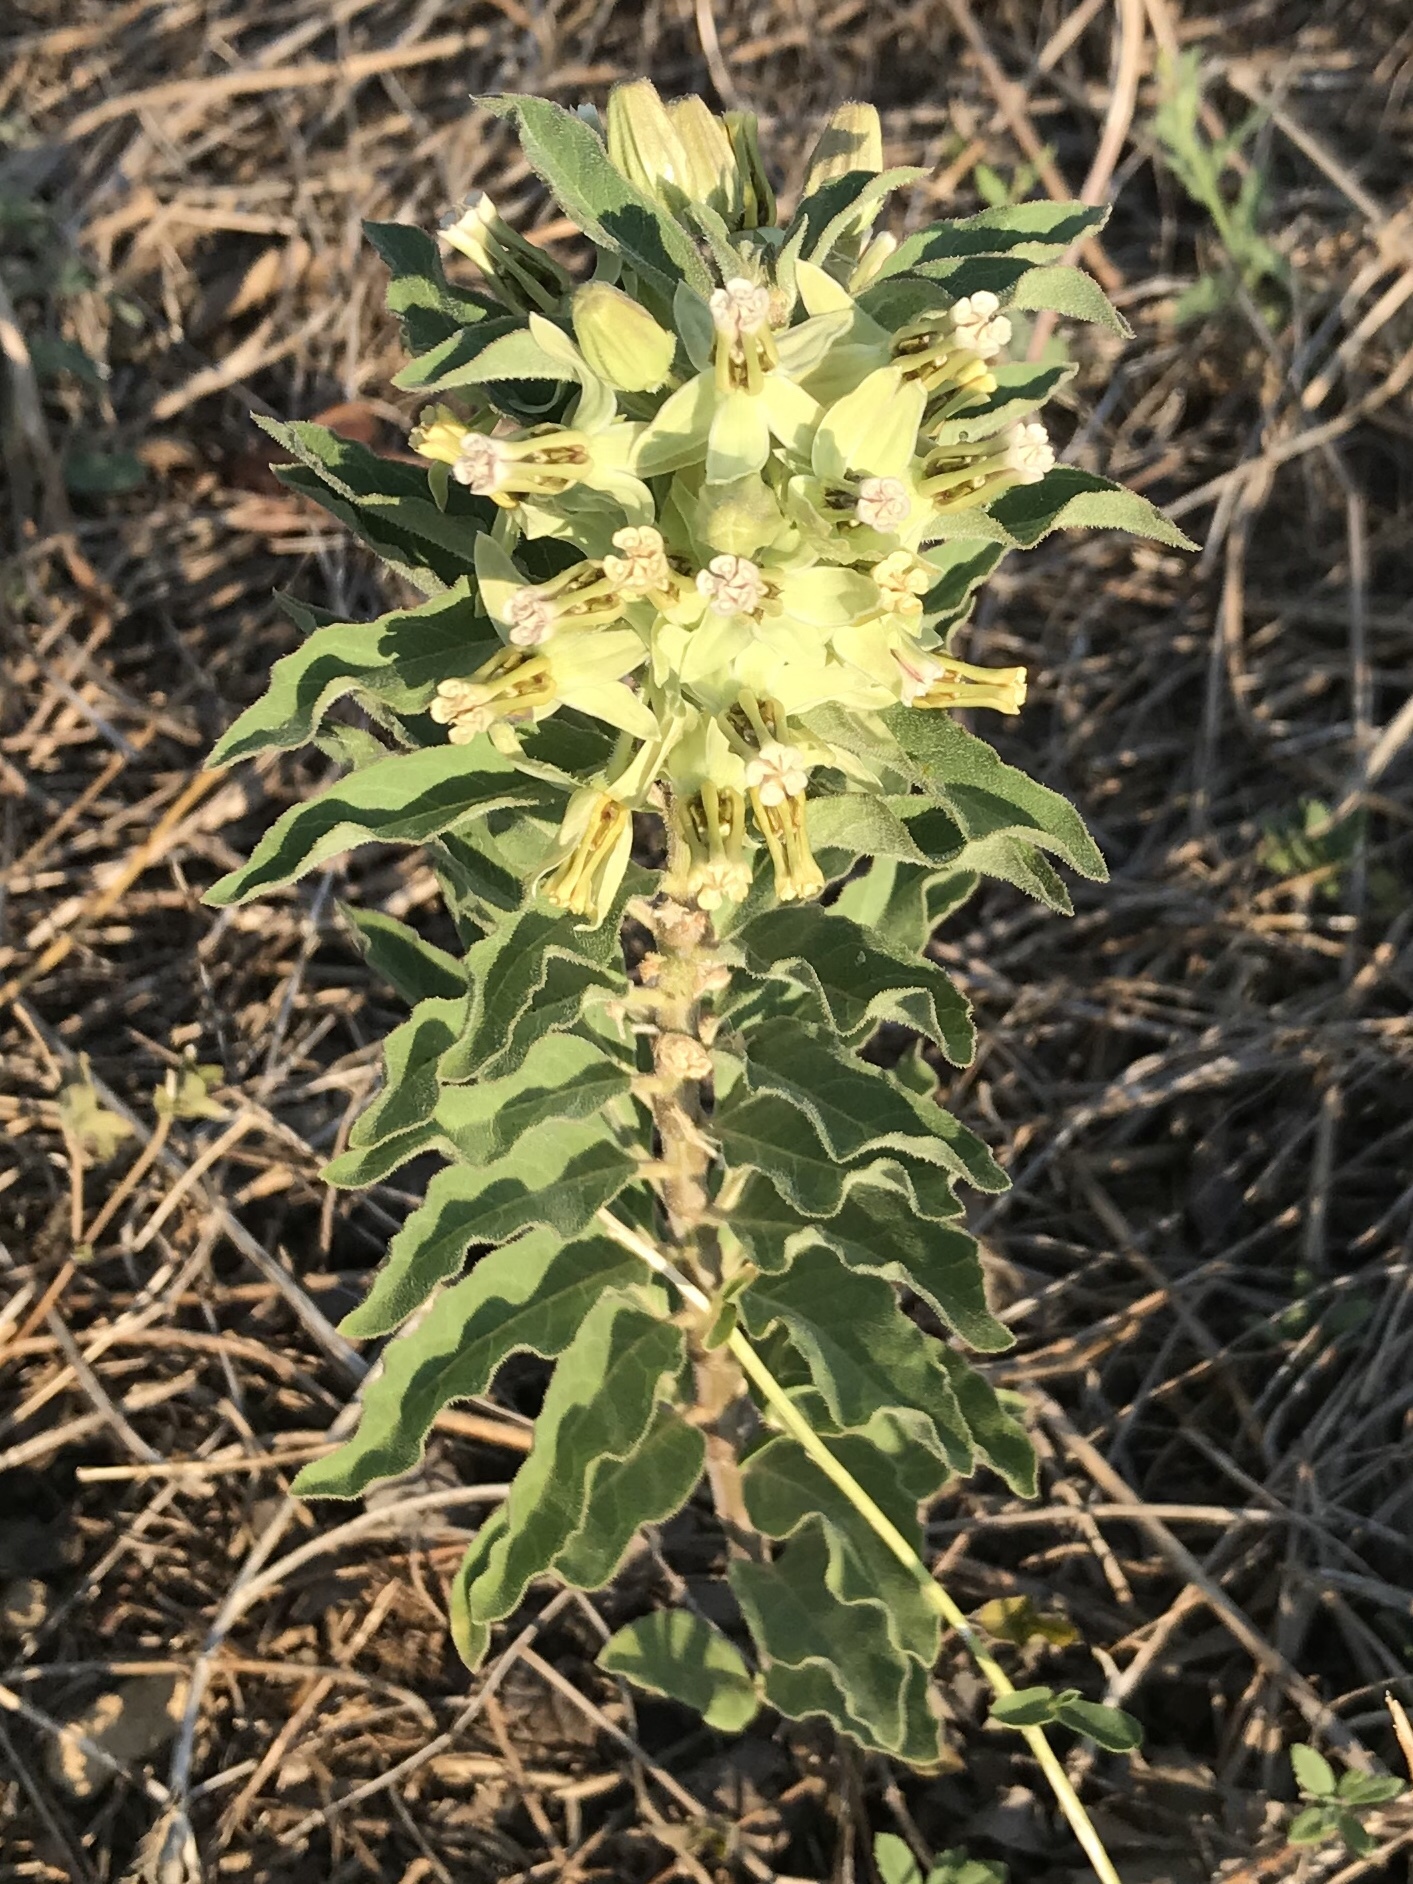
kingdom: Plantae
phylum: Tracheophyta
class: Magnoliopsida
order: Gentianales
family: Apocynaceae
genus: Asclepias
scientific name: Asclepias oenotheroides
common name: Zizotes milkweed
